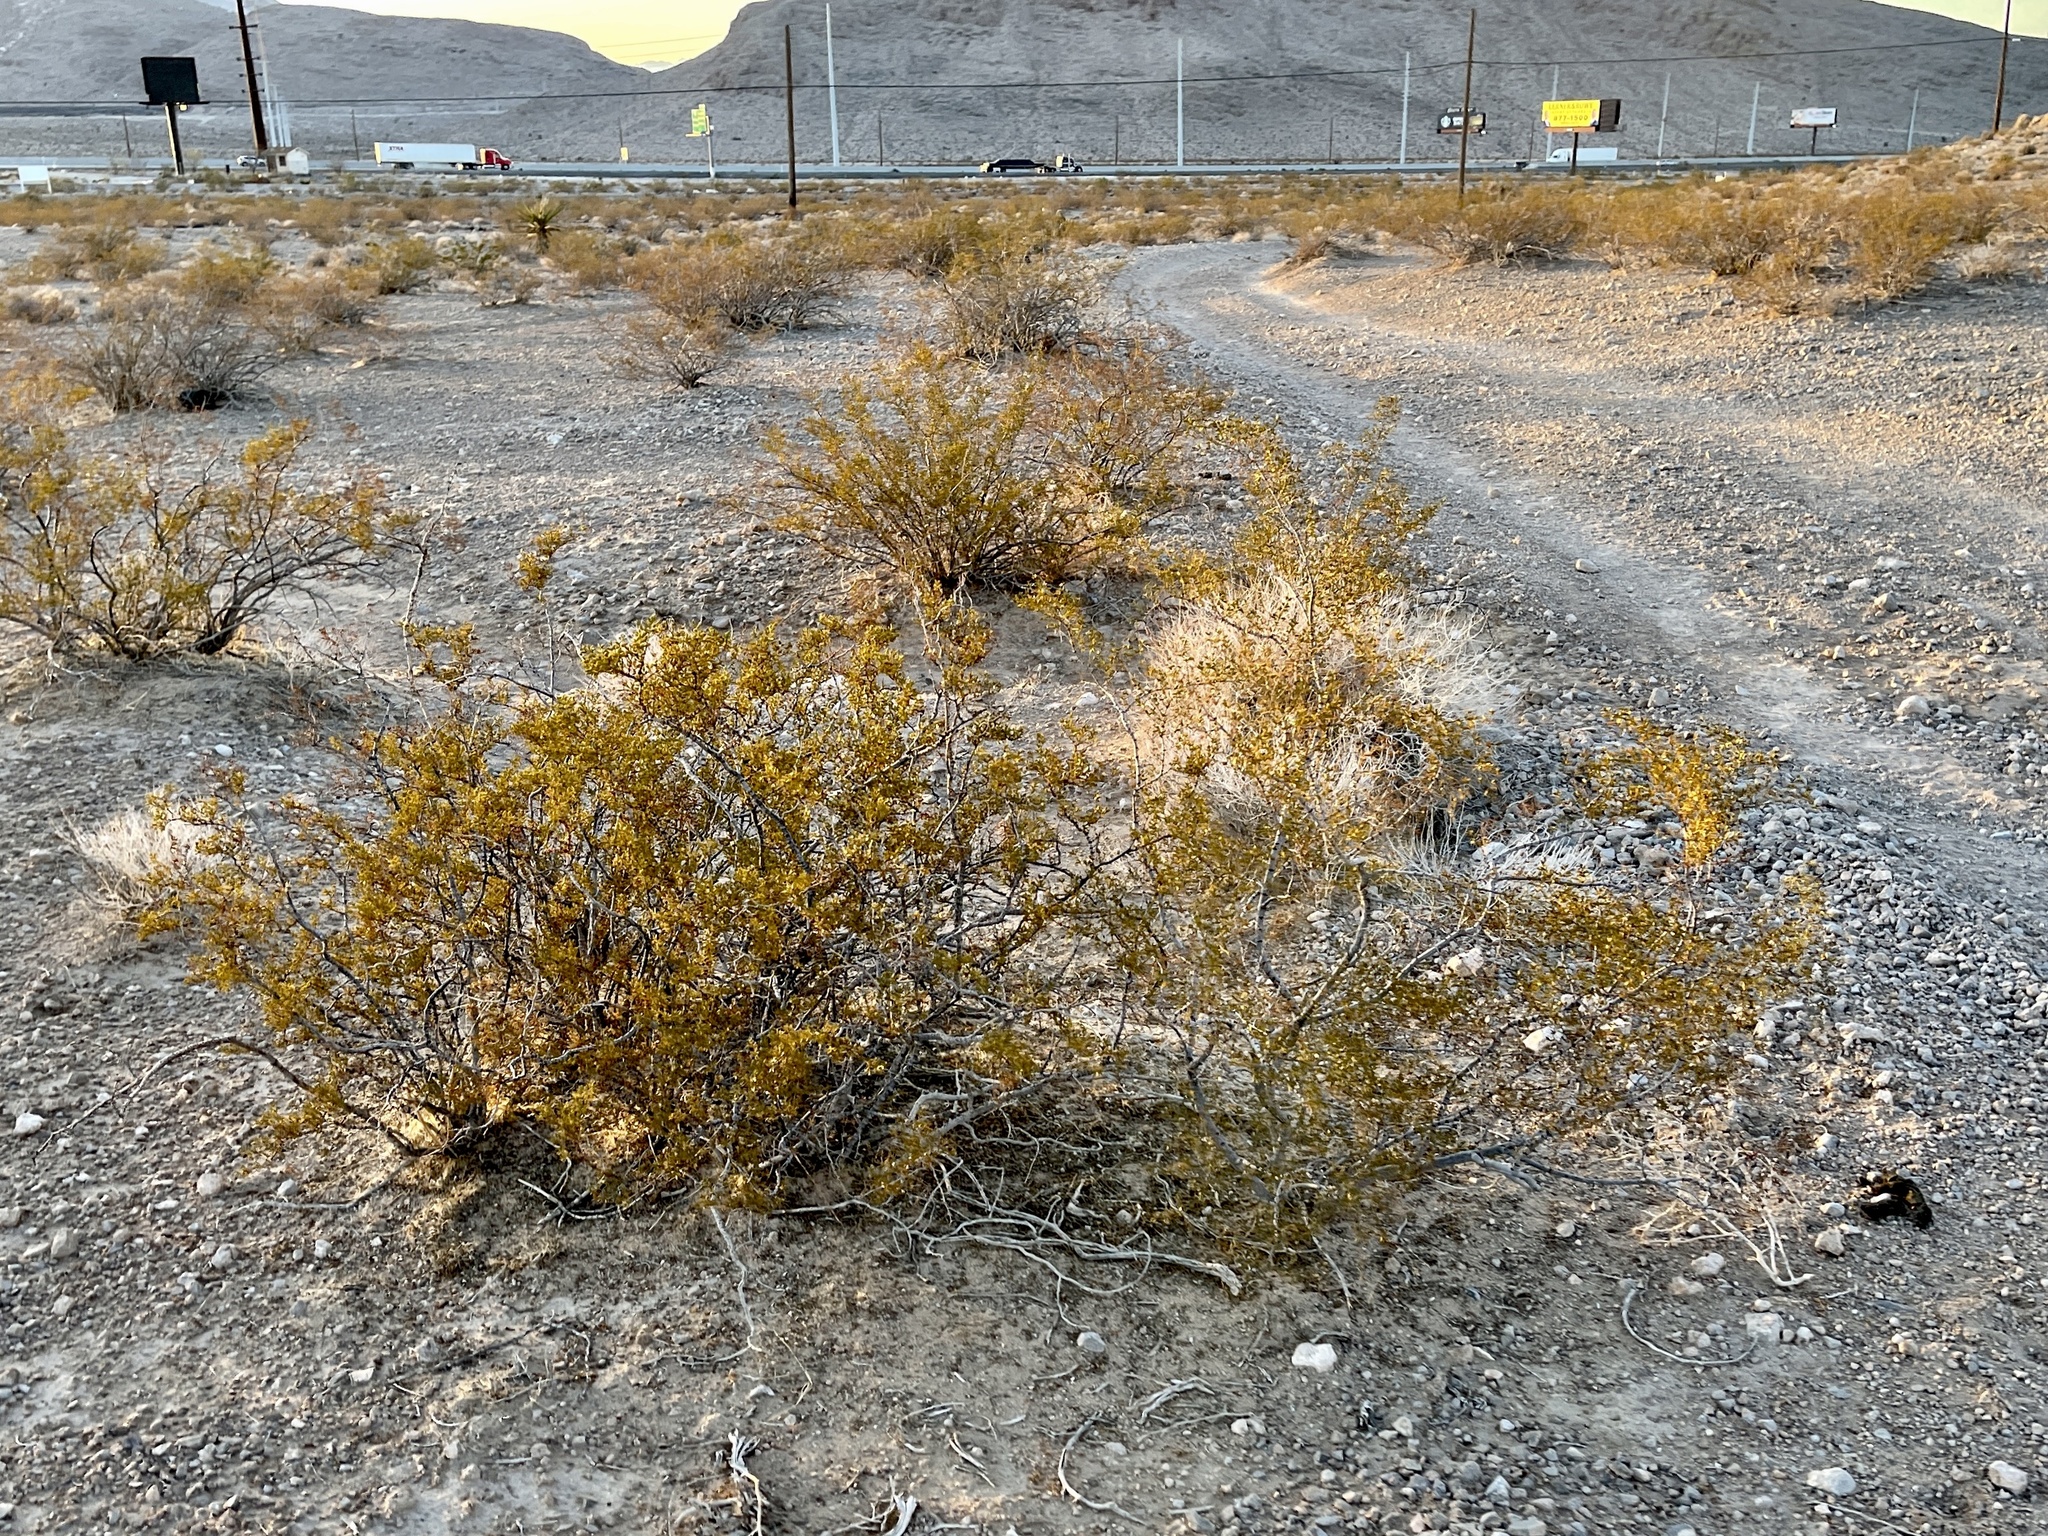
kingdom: Plantae
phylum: Tracheophyta
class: Magnoliopsida
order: Zygophyllales
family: Zygophyllaceae
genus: Larrea
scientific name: Larrea tridentata
